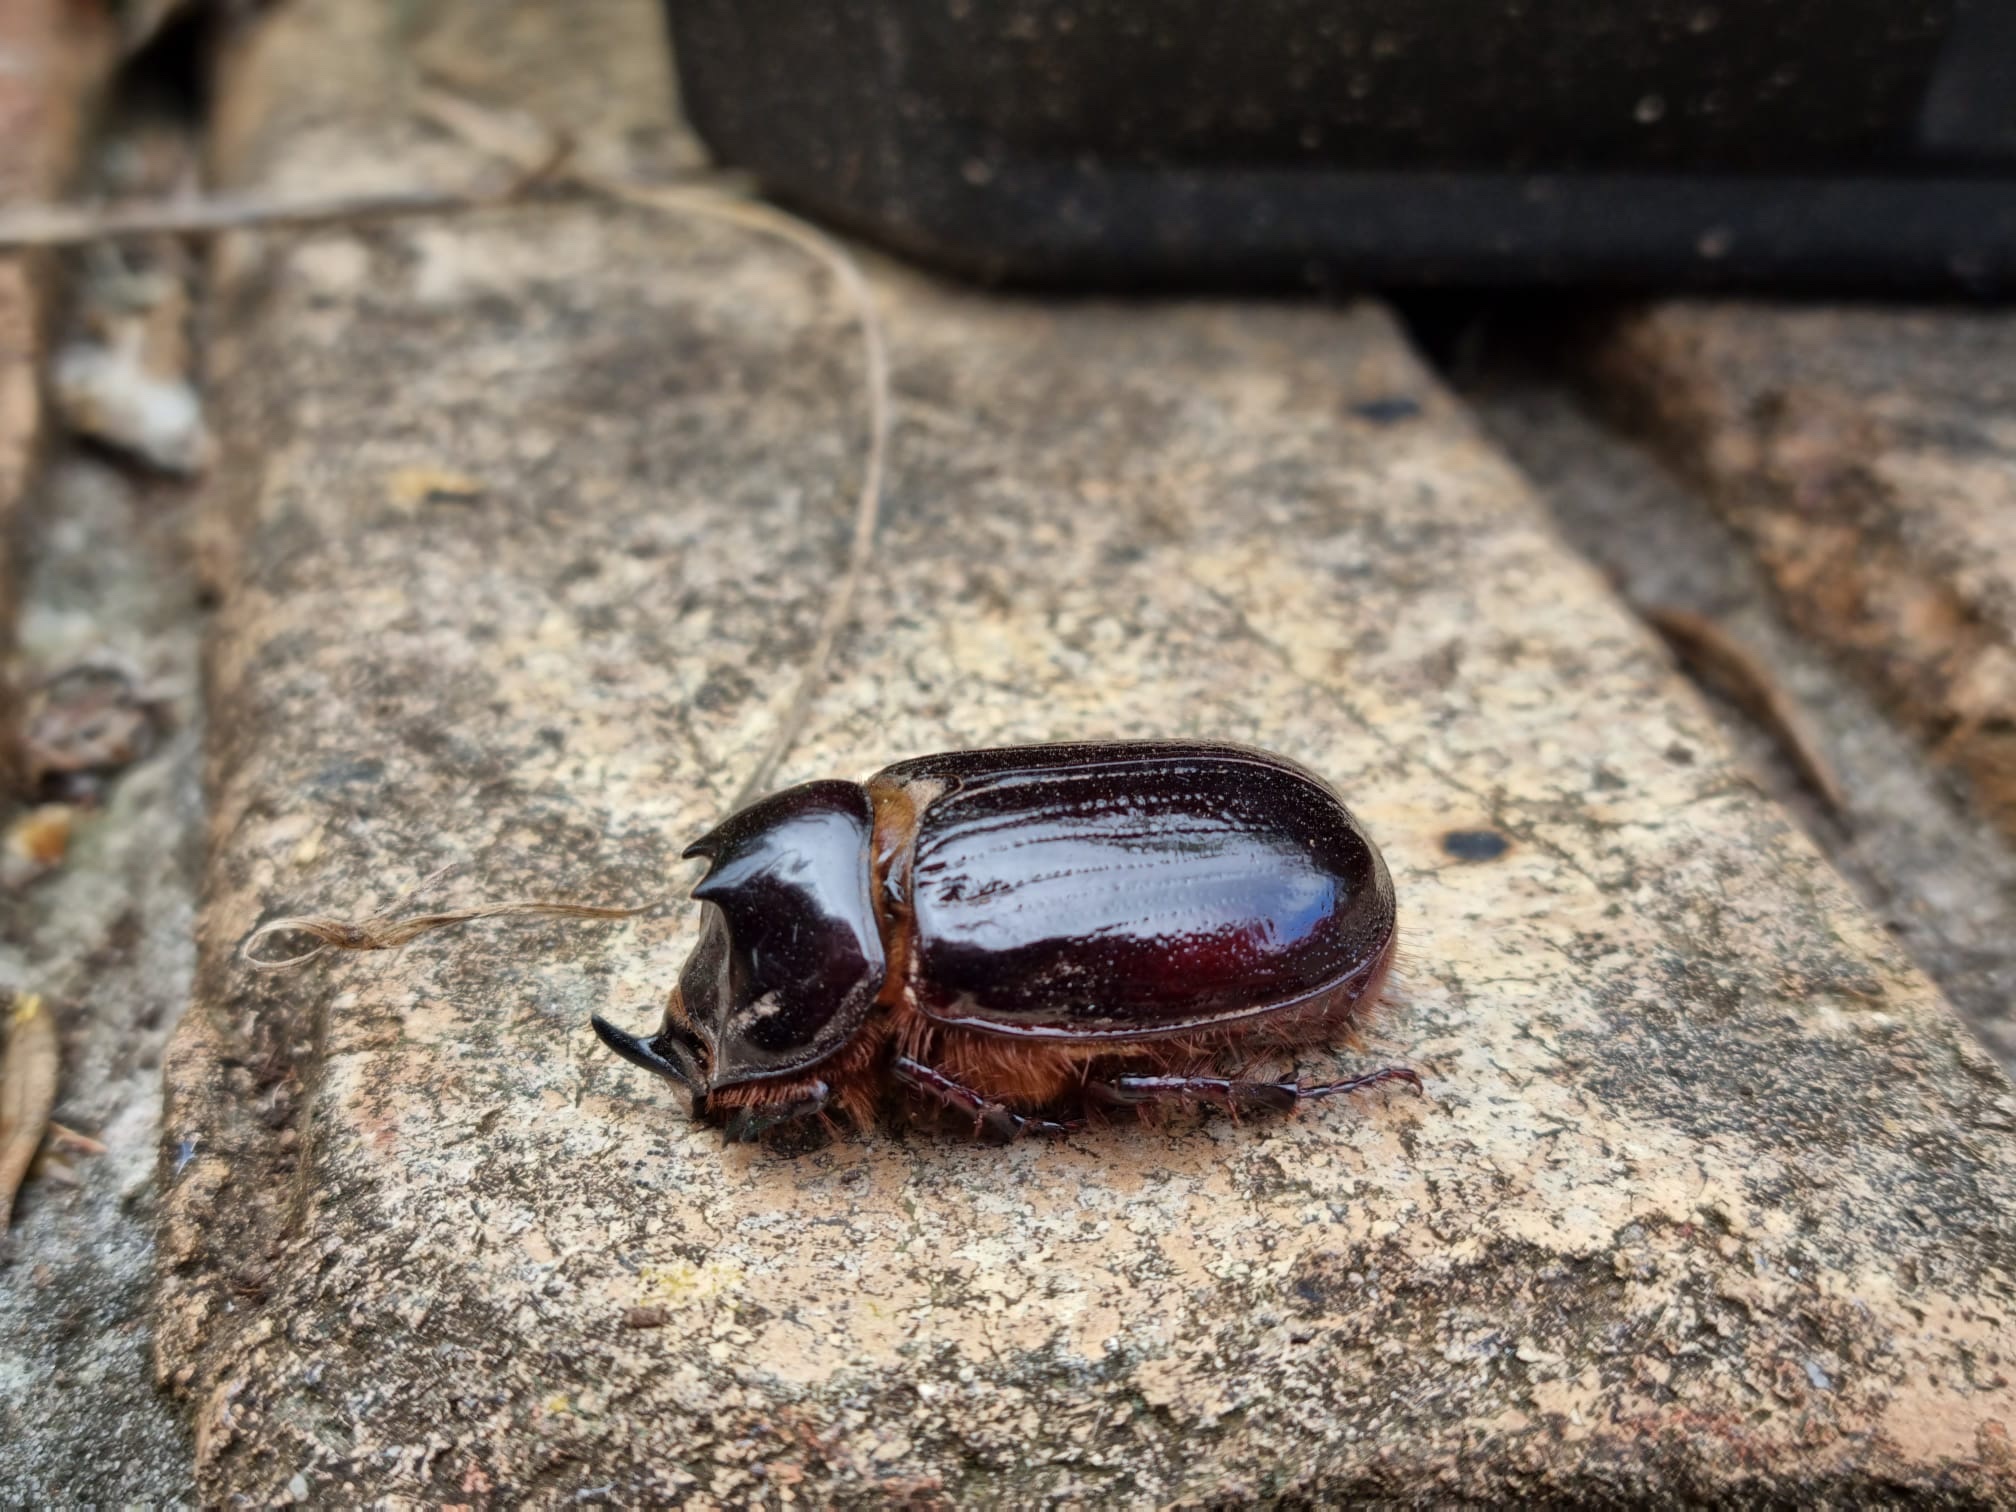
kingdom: Animalia
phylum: Arthropoda
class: Insecta
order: Coleoptera
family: Scarabaeidae
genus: Dasygnathus
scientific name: Dasygnathus trituberculatus
